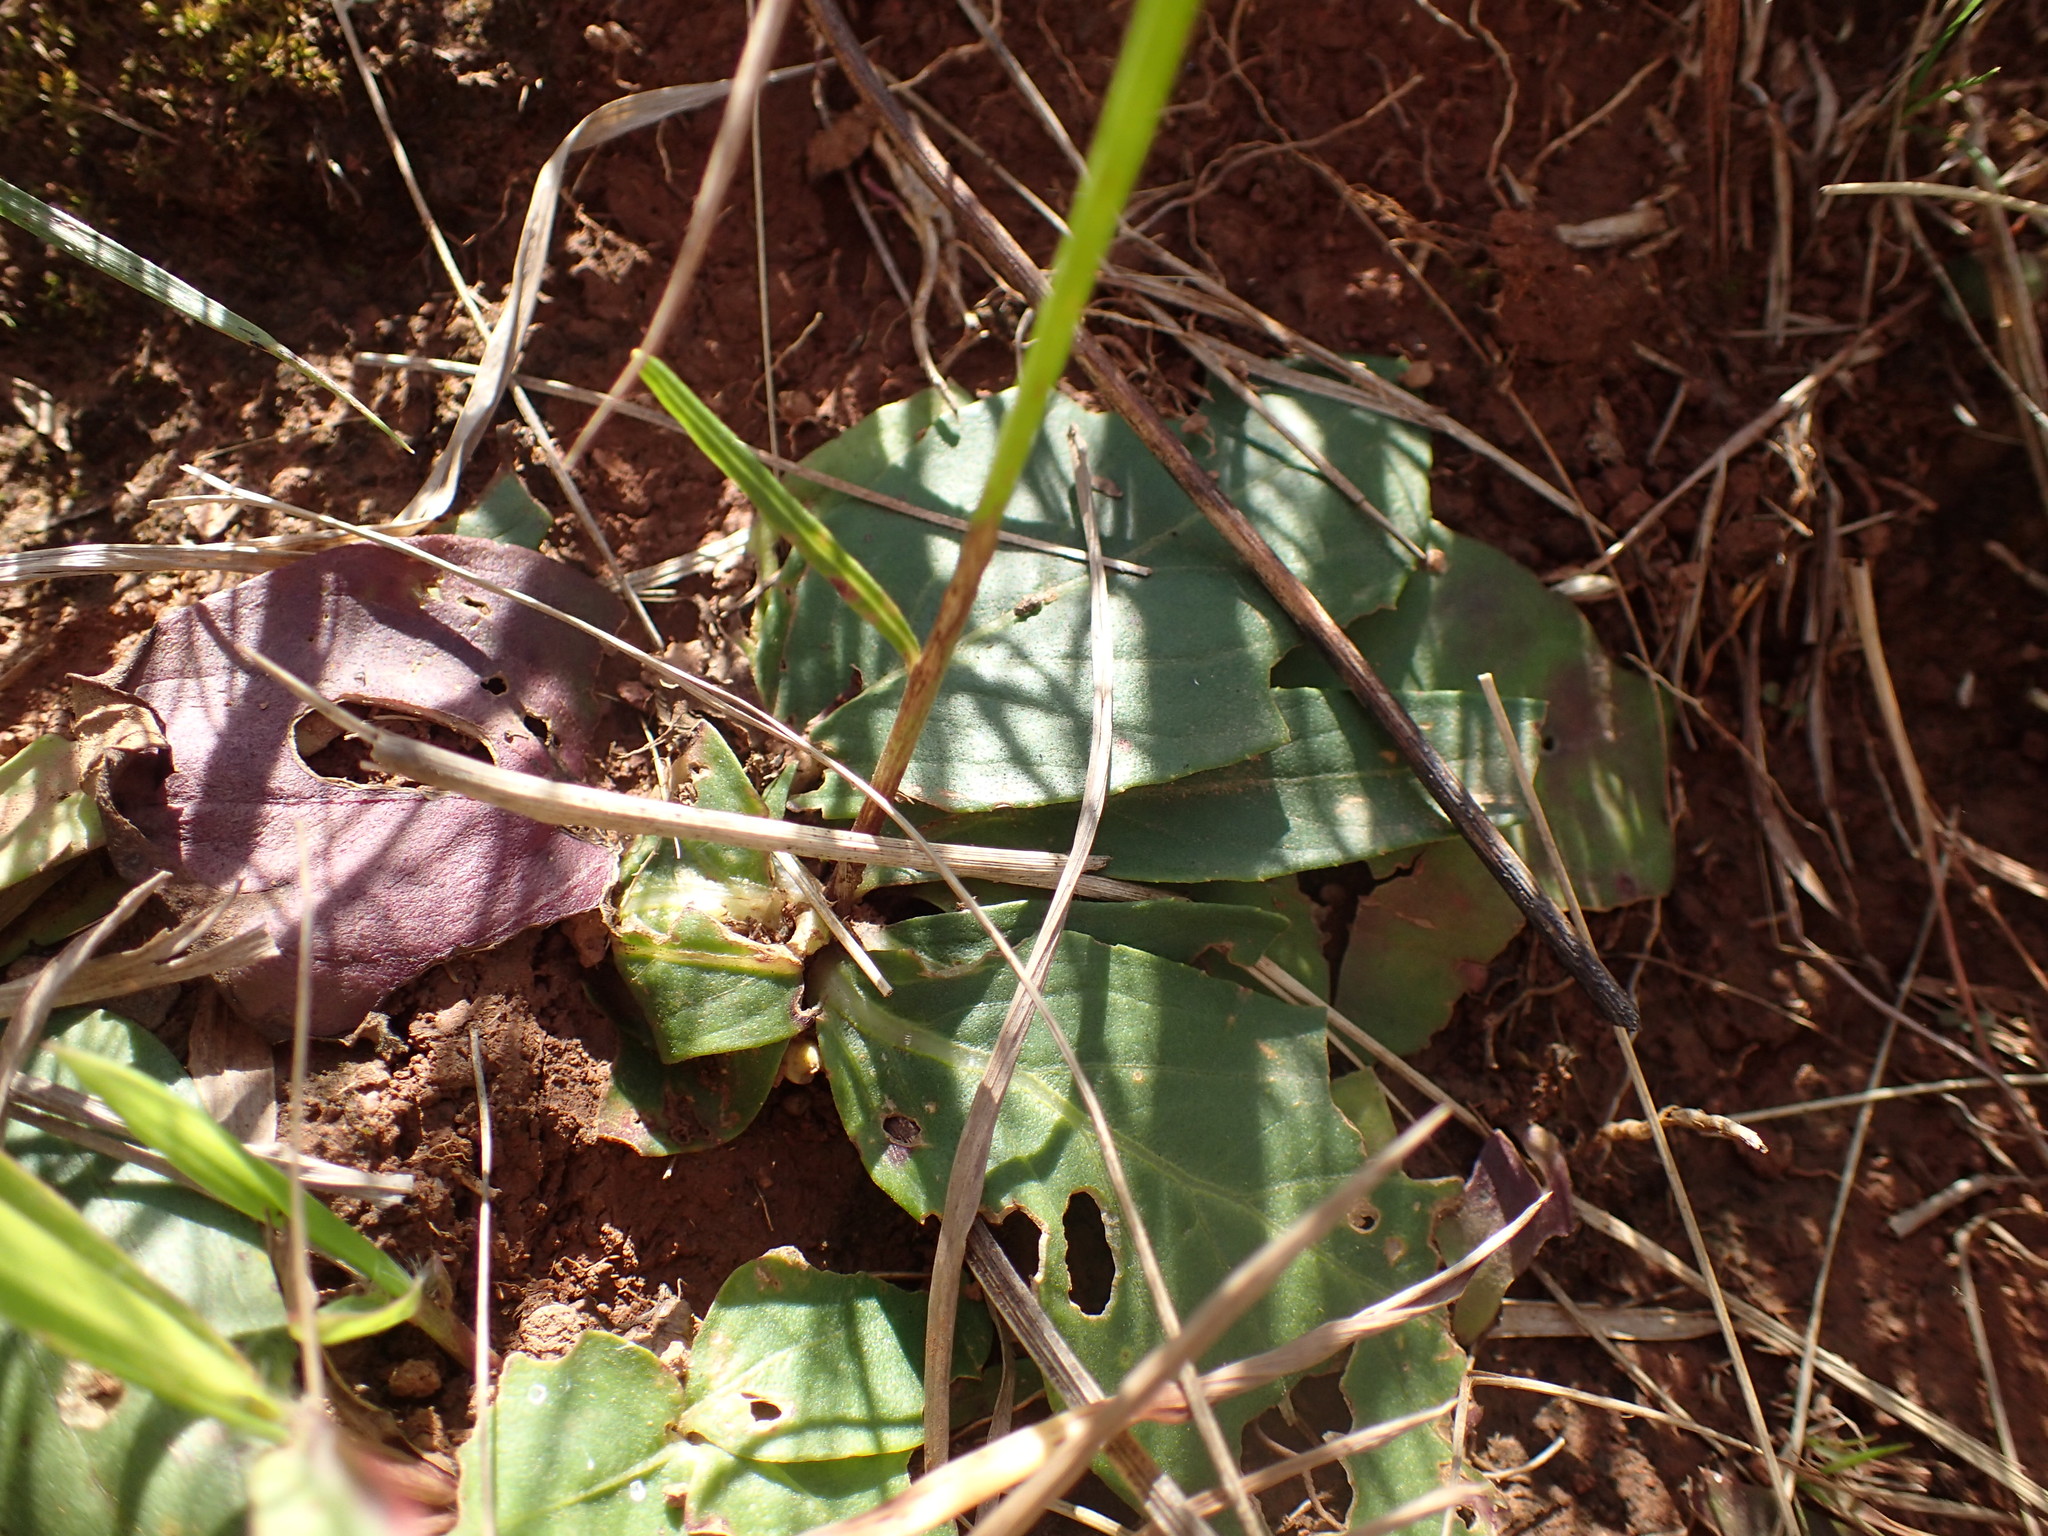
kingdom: Plantae
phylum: Tracheophyta
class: Magnoliopsida
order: Asterales
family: Asteraceae
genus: Hilliardiella
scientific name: Hilliardiella nudicaulis
